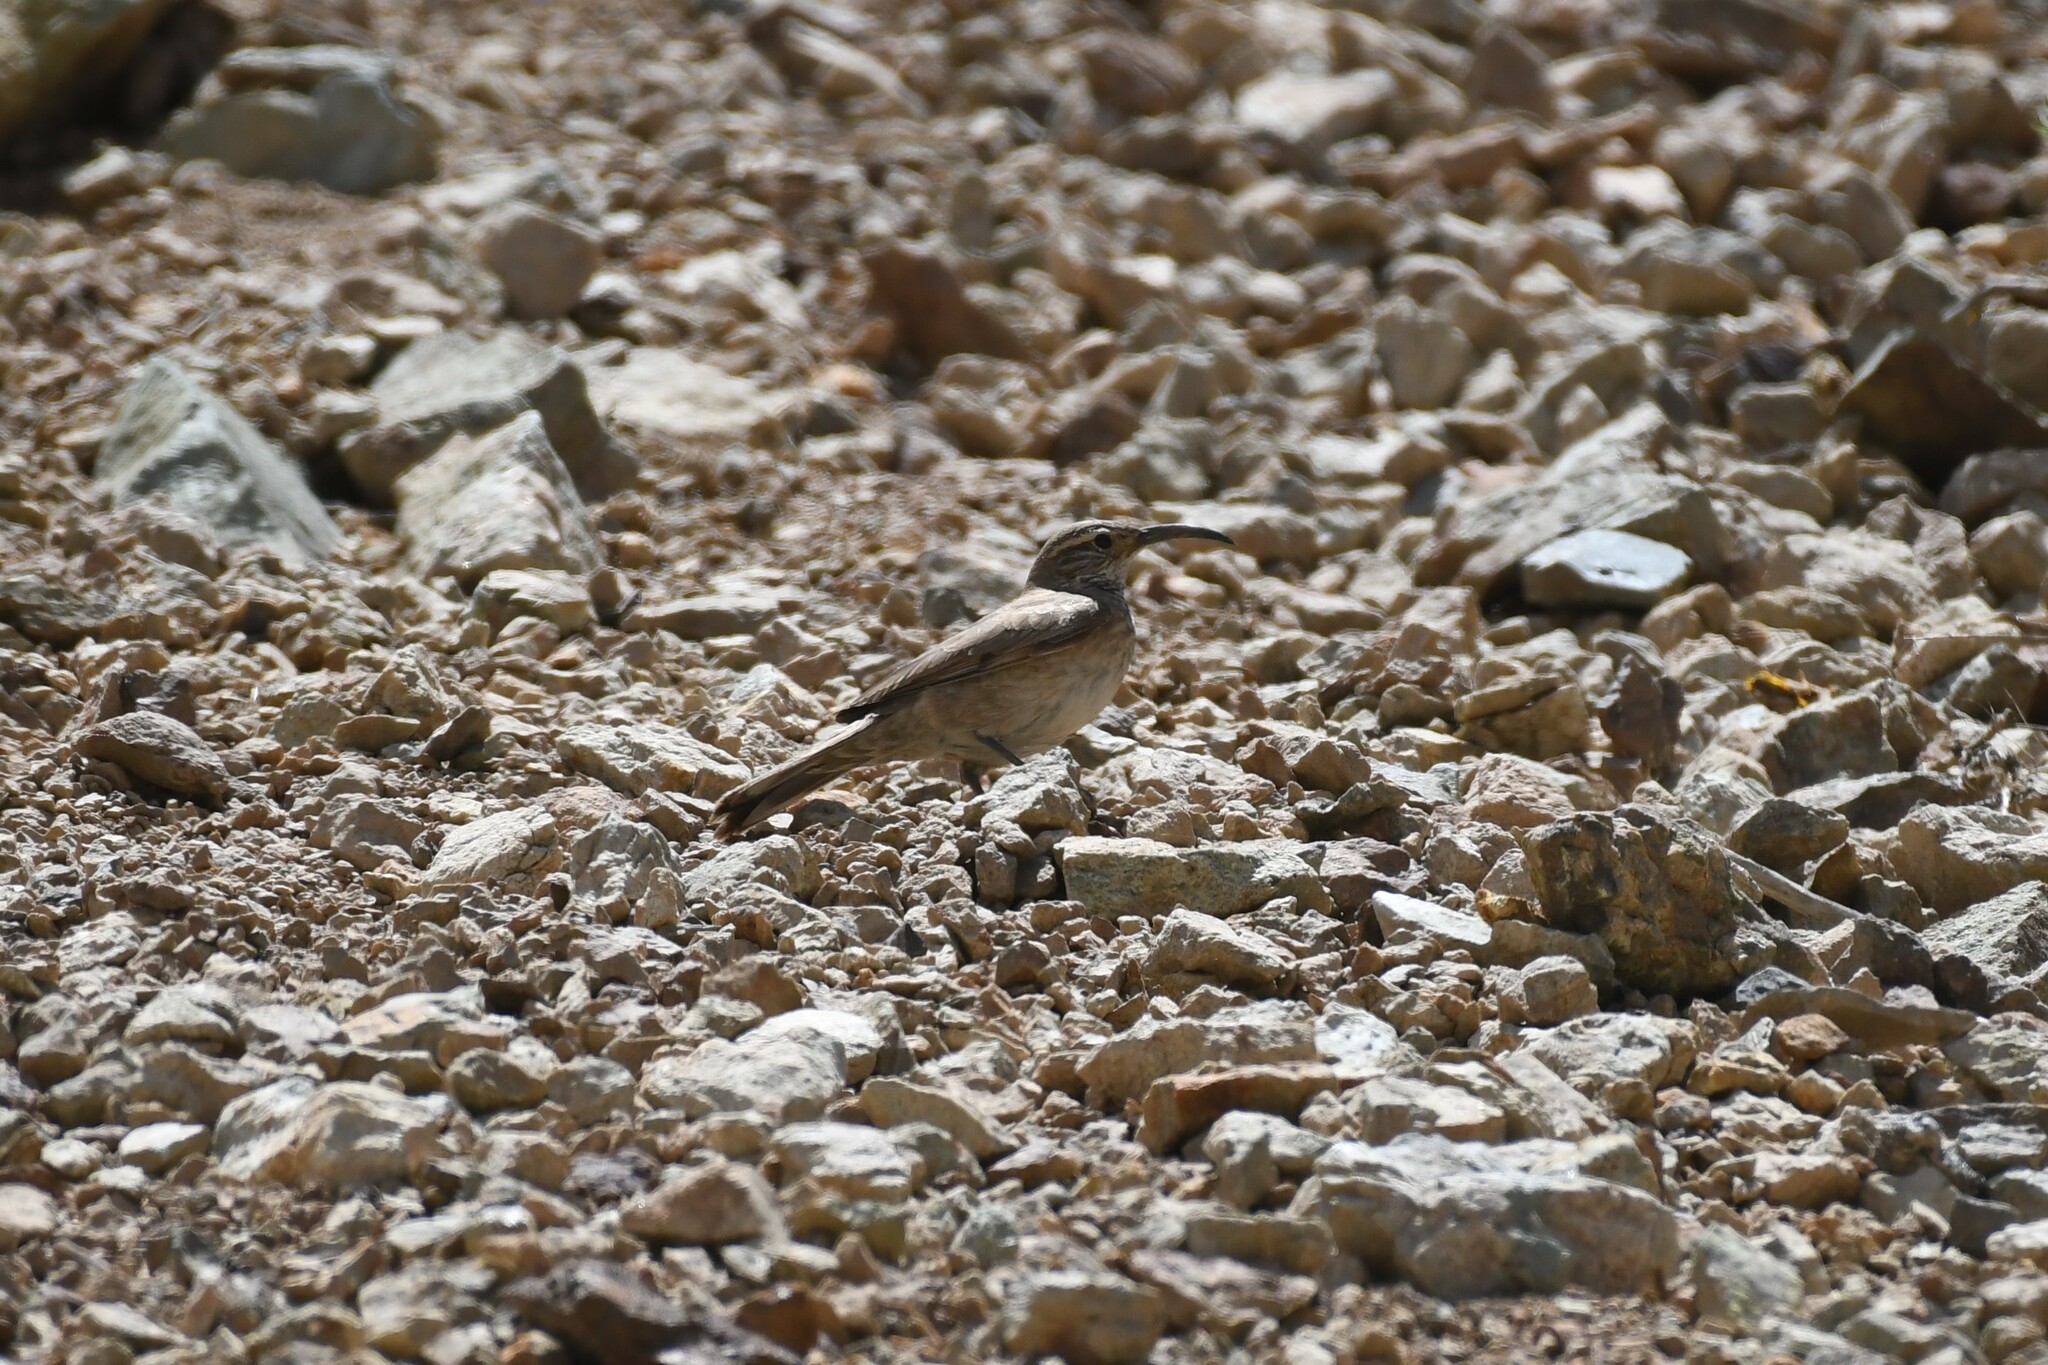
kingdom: Animalia
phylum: Chordata
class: Aves
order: Passeriformes
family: Furnariidae
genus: Upucerthia
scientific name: Upucerthia dumetaria
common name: Scale-throated earthcreeper
